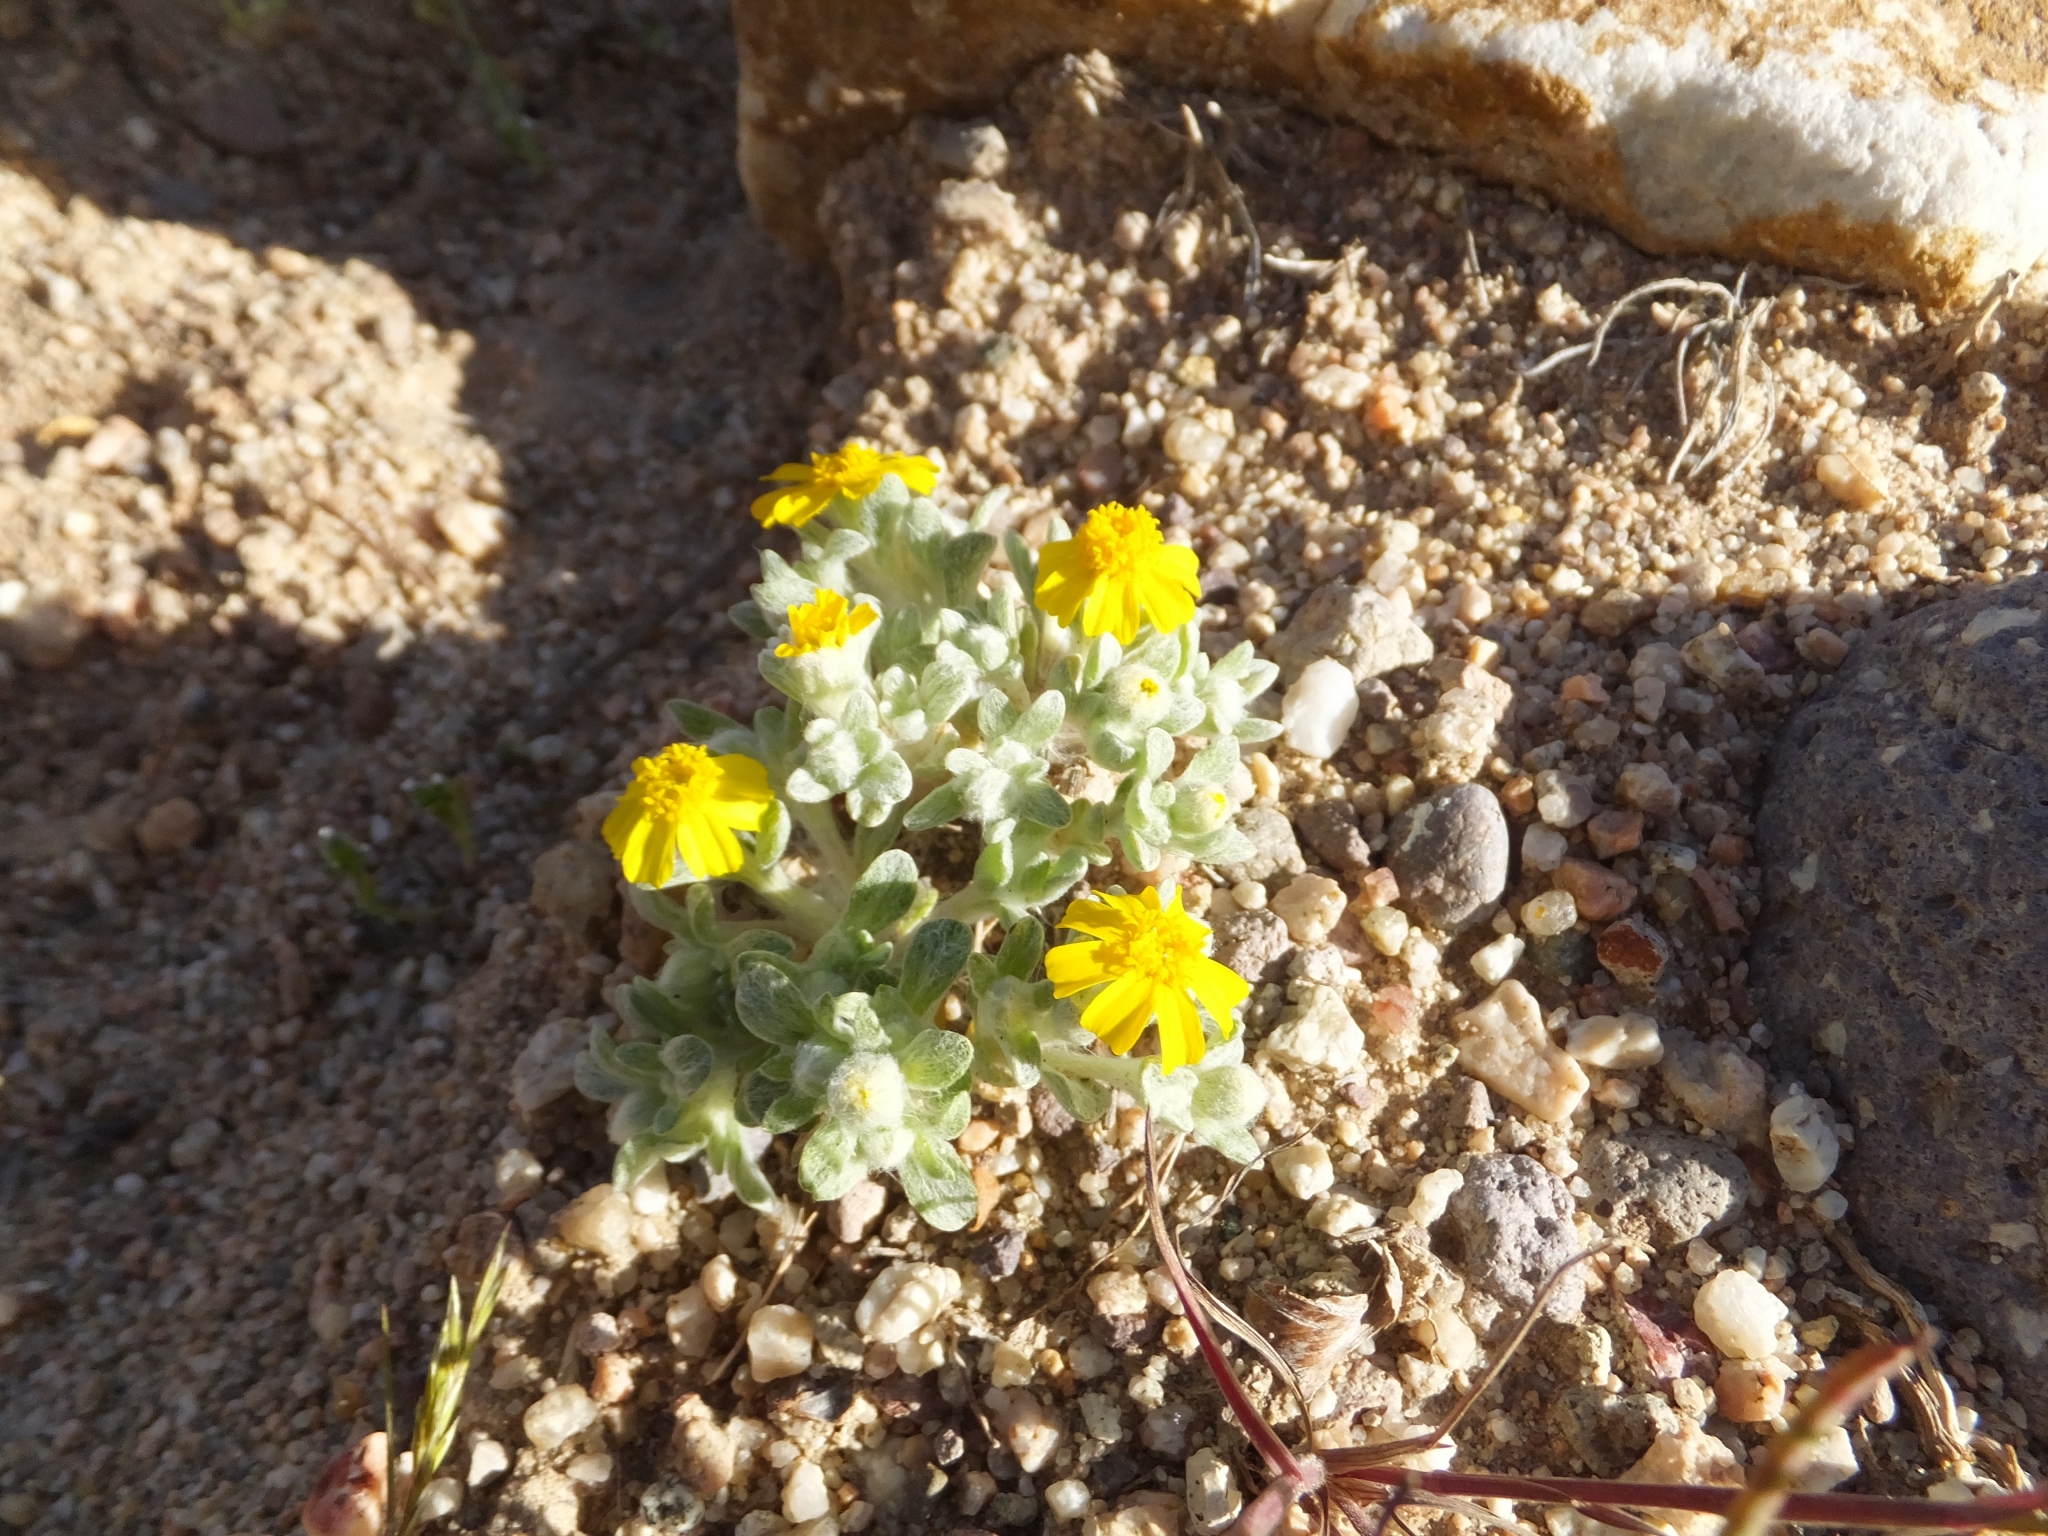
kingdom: Plantae
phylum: Tracheophyta
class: Magnoliopsida
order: Asterales
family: Asteraceae
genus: Eriophyllum
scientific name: Eriophyllum wallacei
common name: Wallace's woolly daisy
